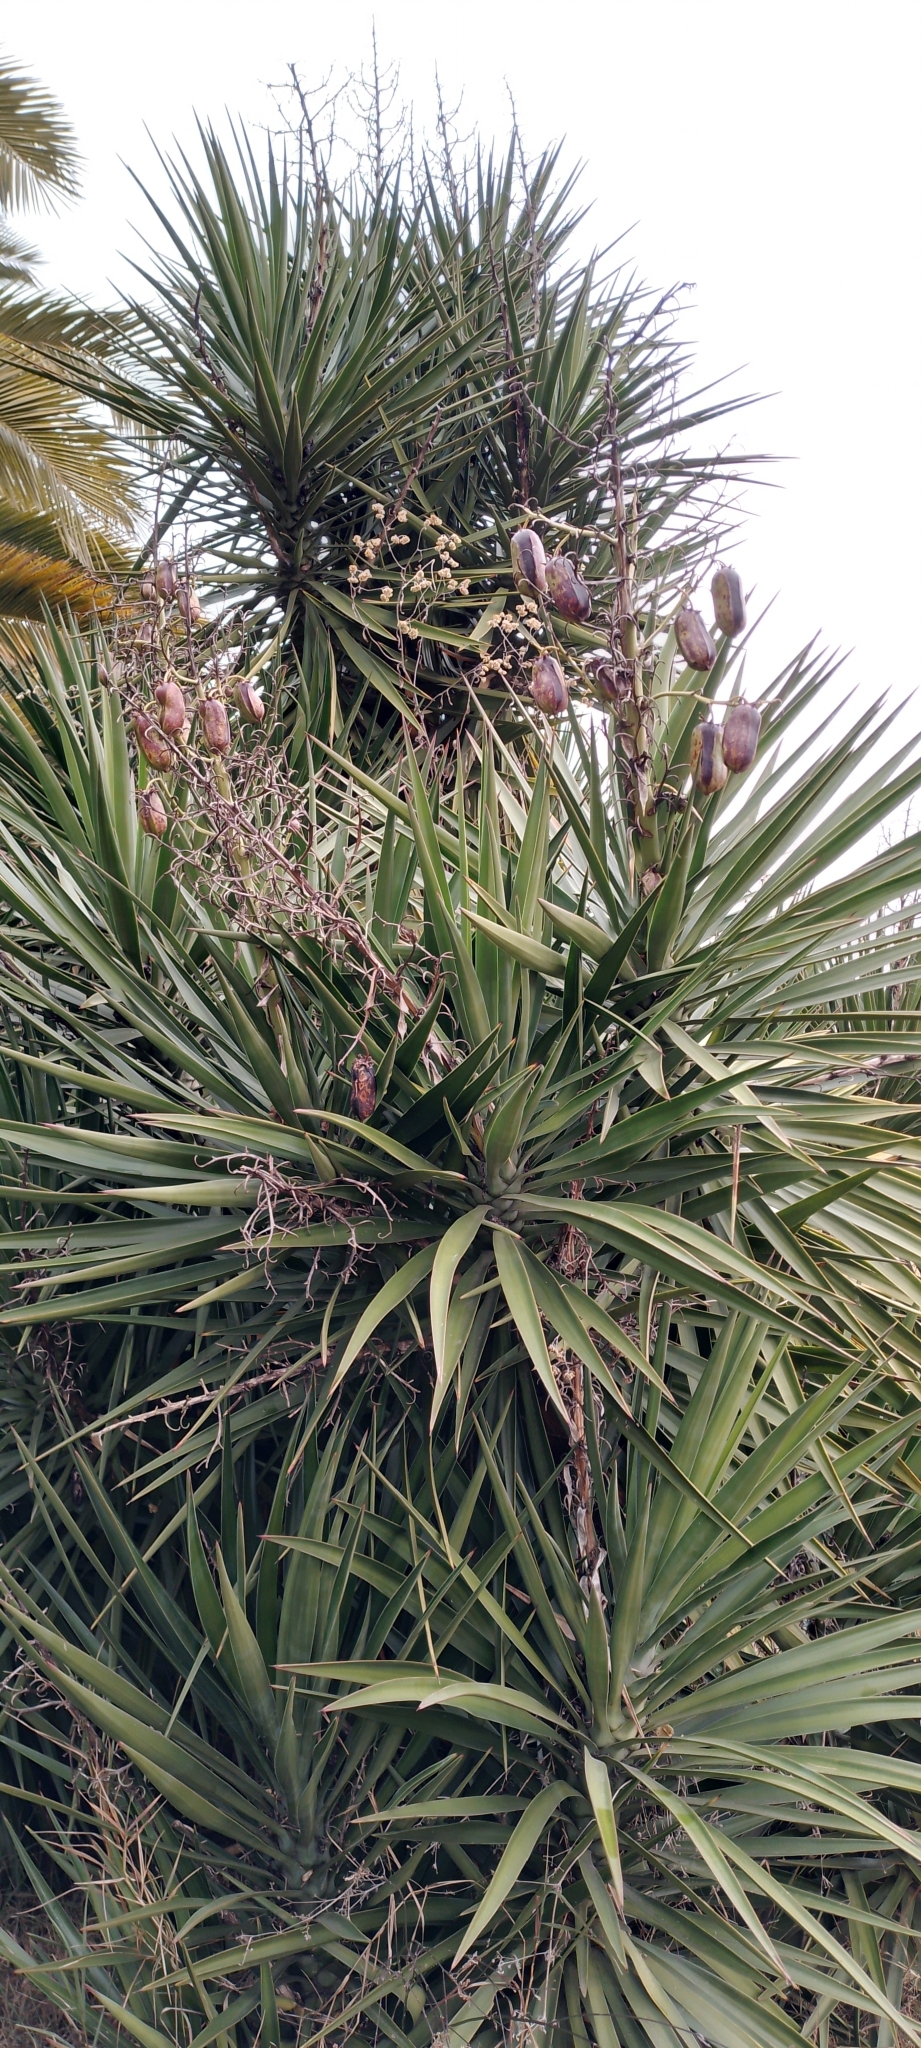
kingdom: Plantae
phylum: Tracheophyta
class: Liliopsida
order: Asparagales
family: Asparagaceae
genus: Yucca
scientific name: Yucca gloriosa
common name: Spanish-dagger
